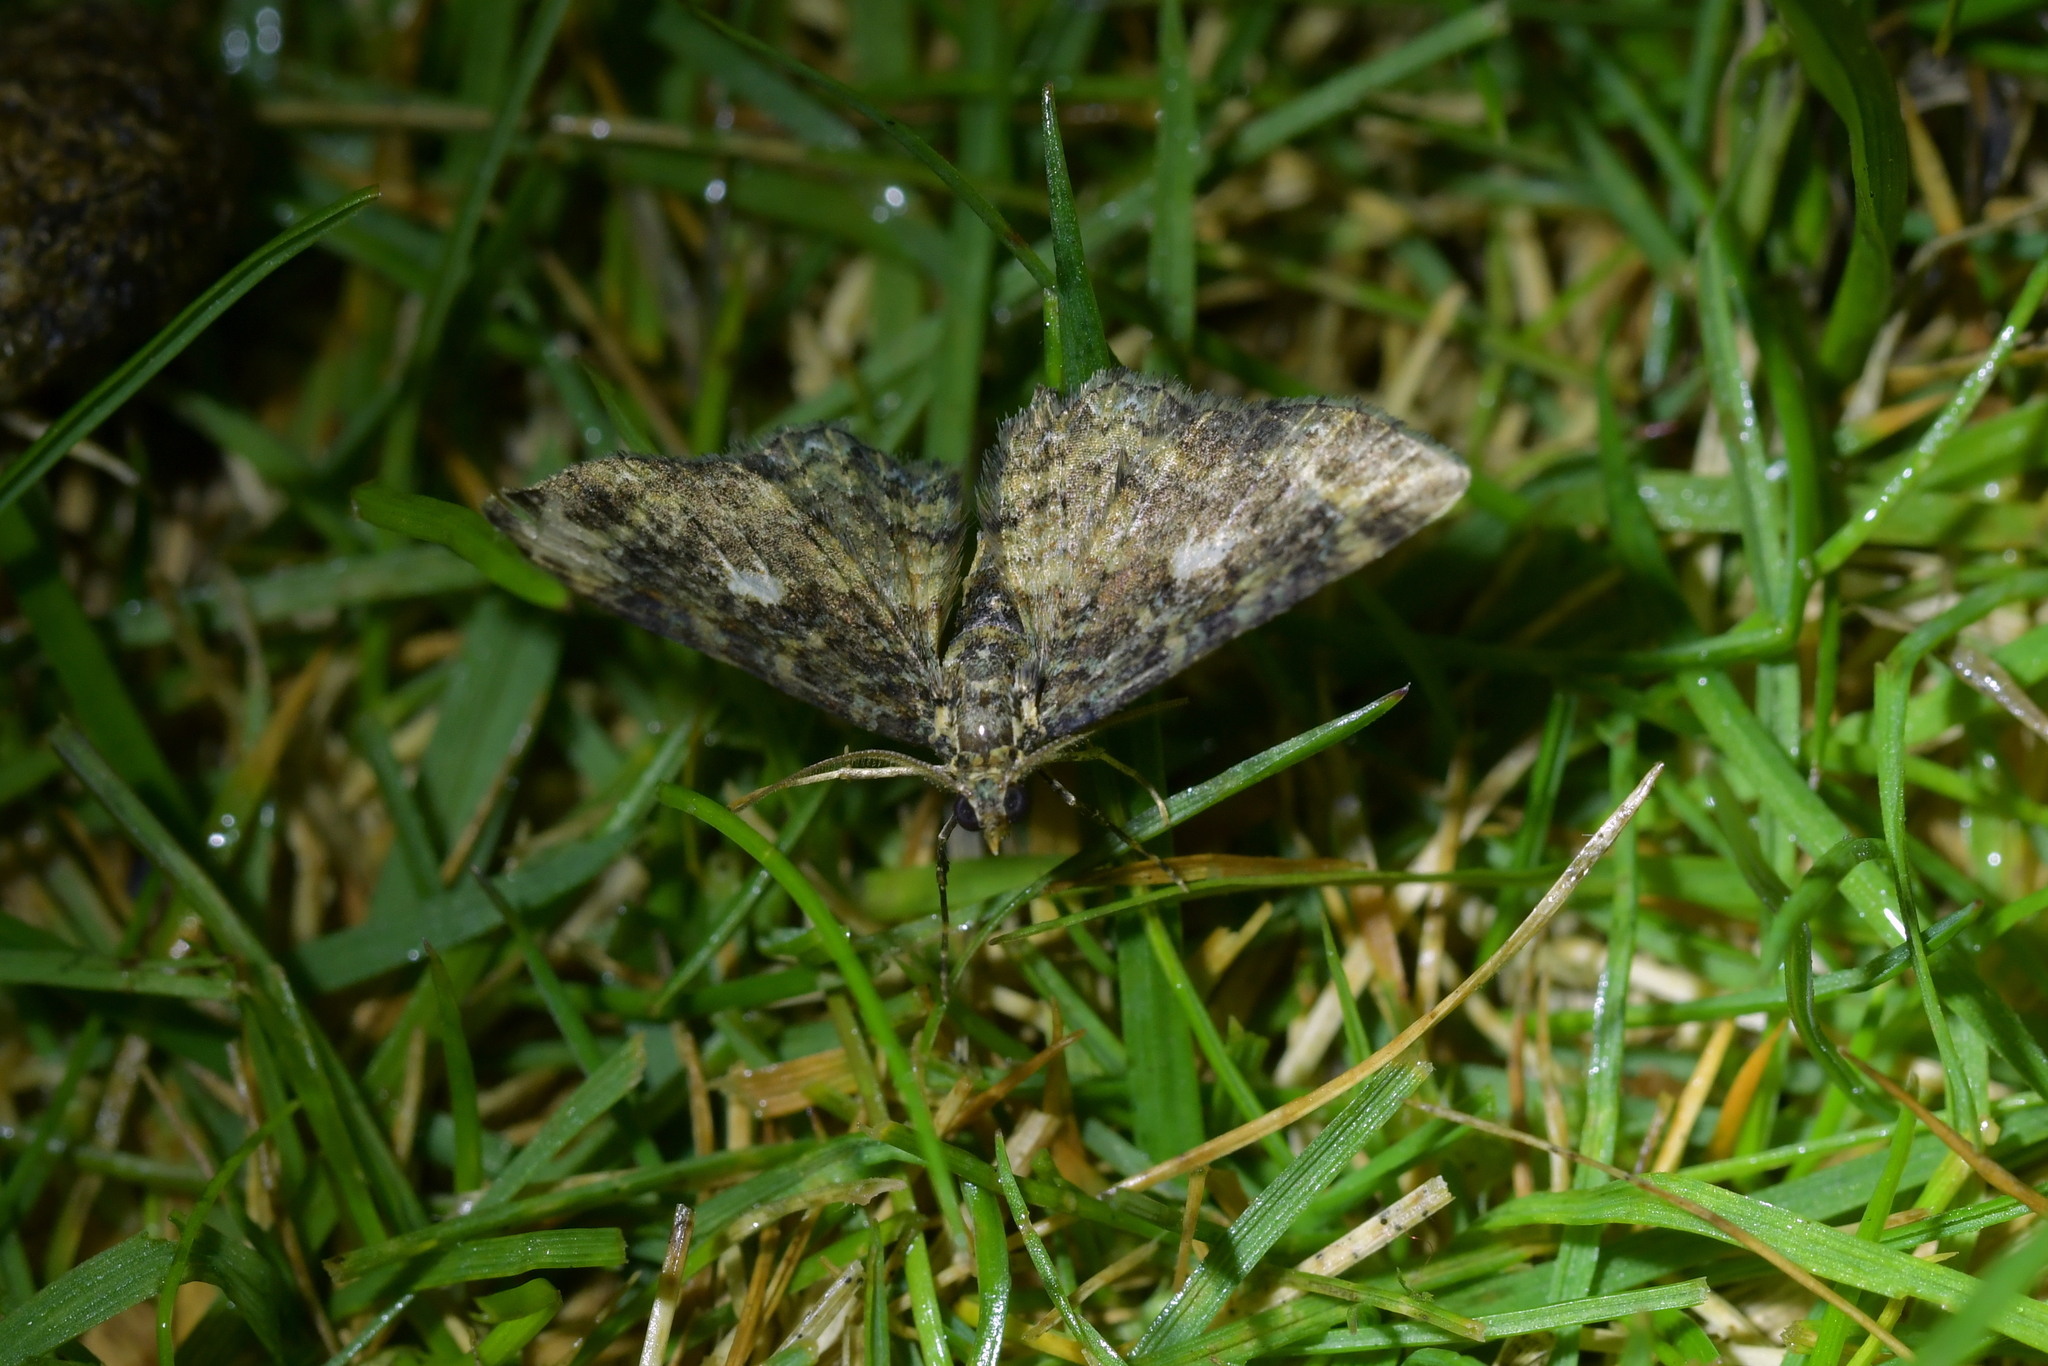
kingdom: Animalia
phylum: Arthropoda
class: Insecta
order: Lepidoptera
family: Geometridae
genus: Pasiphila
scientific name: Pasiphila lunata
